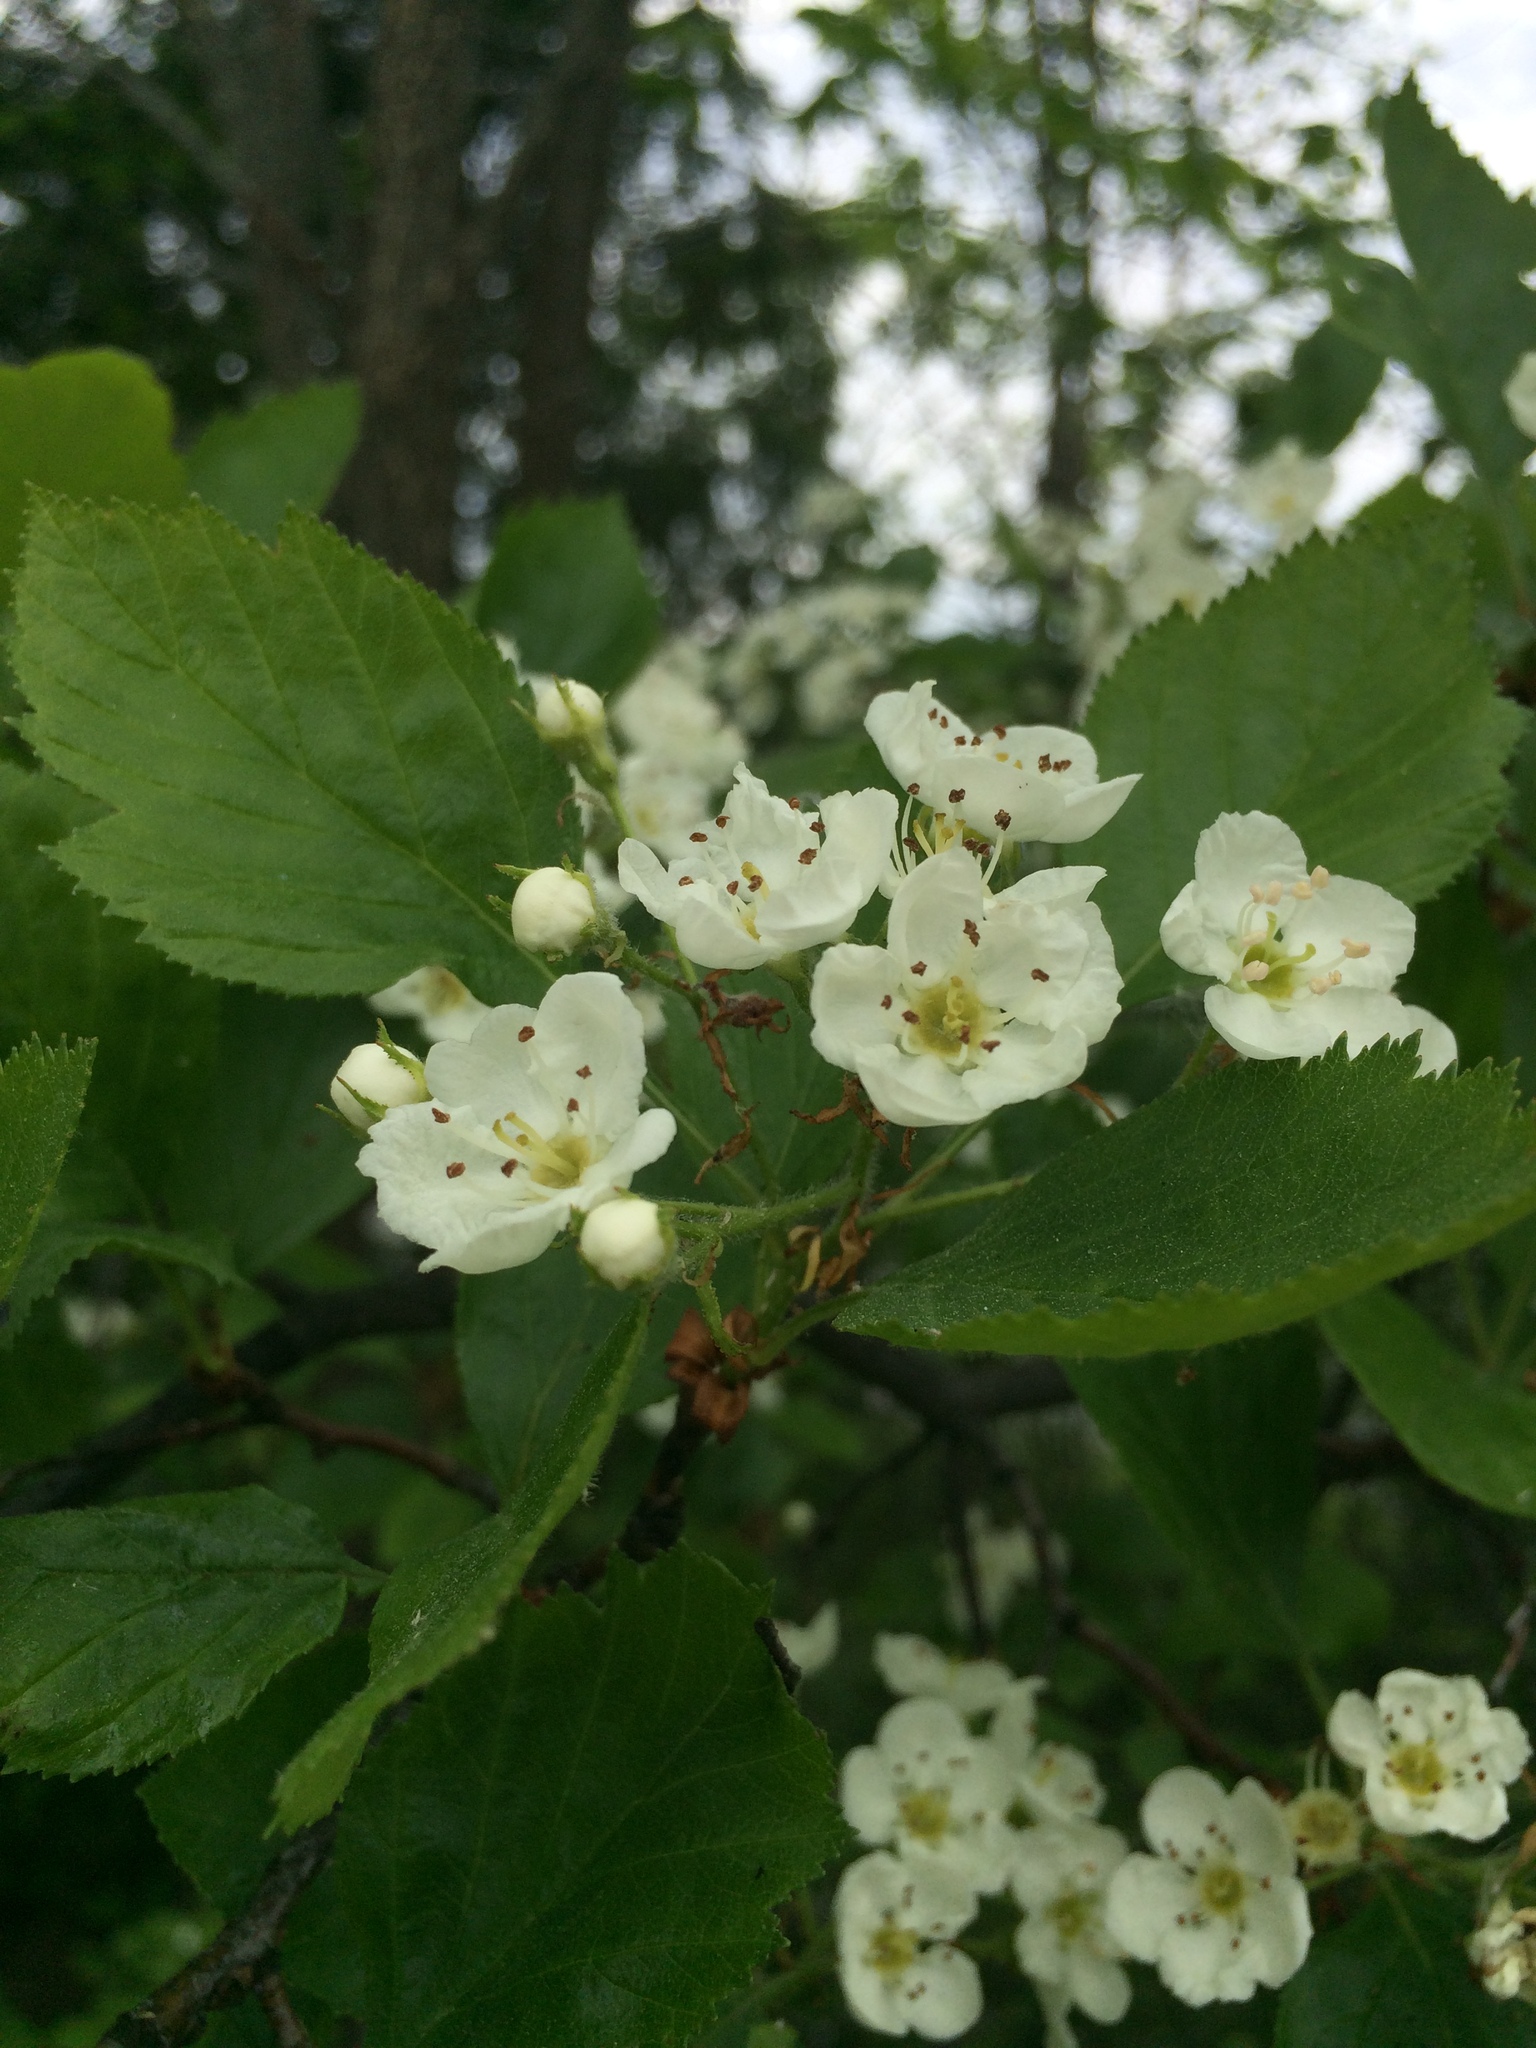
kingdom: Plantae
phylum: Tracheophyta
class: Magnoliopsida
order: Rosales
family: Rosaceae
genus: Crataegus
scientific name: Crataegus macracantha
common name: Large-thorn hawthorn
